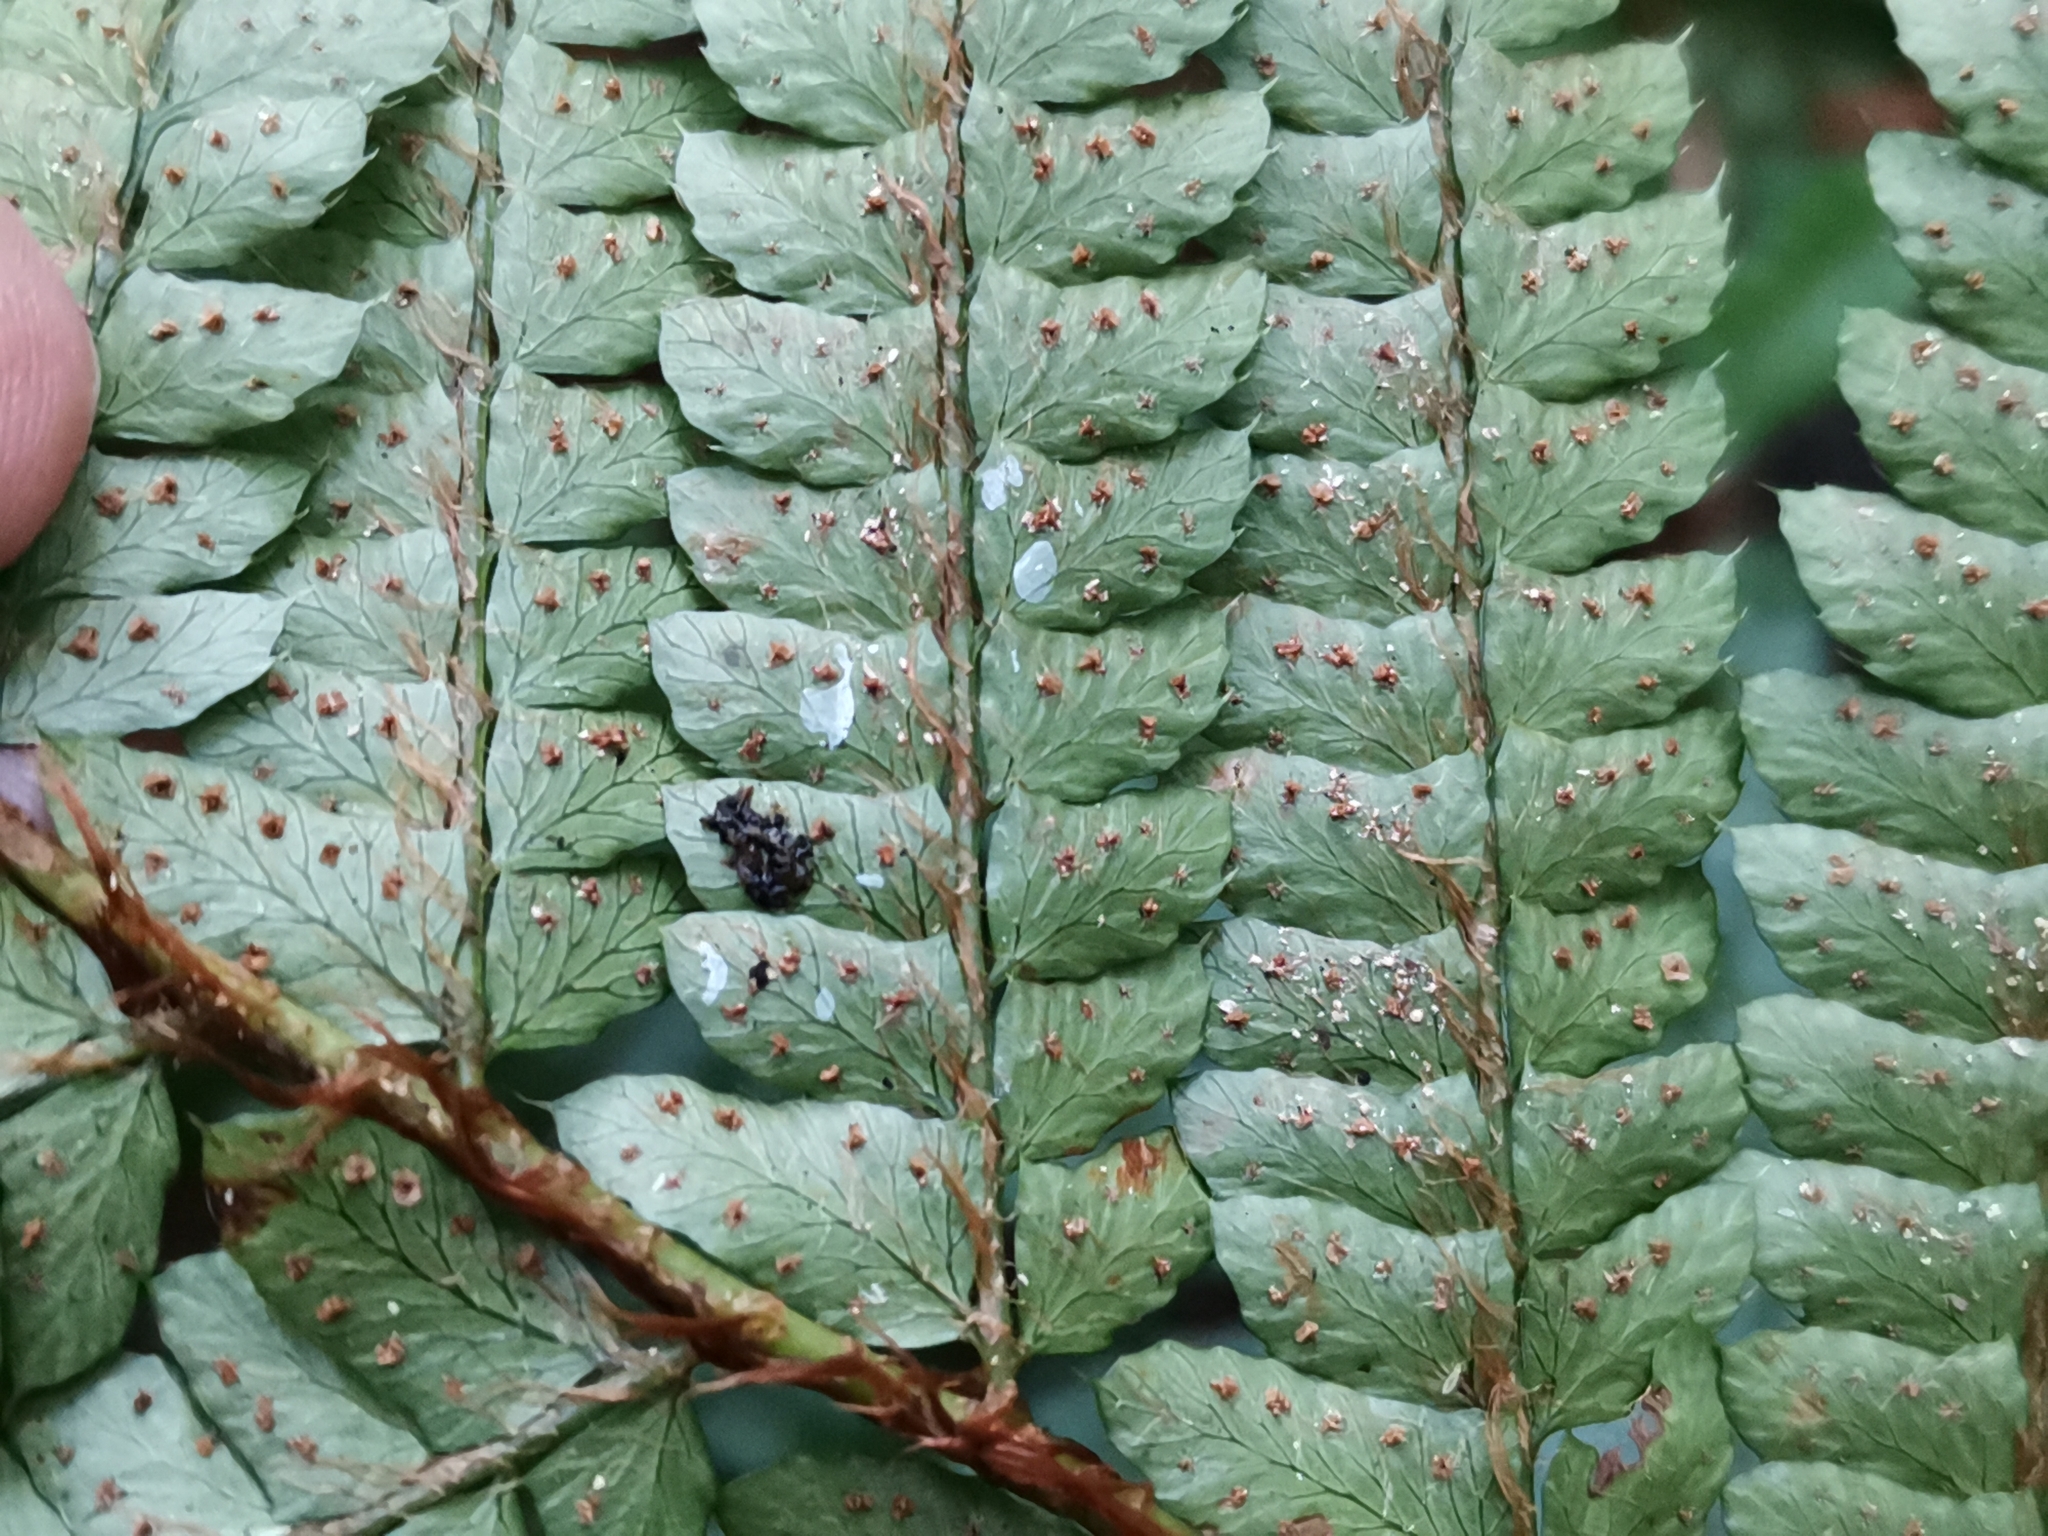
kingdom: Plantae
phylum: Tracheophyta
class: Polypodiopsida
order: Polypodiales
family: Dryopteridaceae
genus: Polystichum
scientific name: Polystichum luctuosum
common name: Korean rockfern
